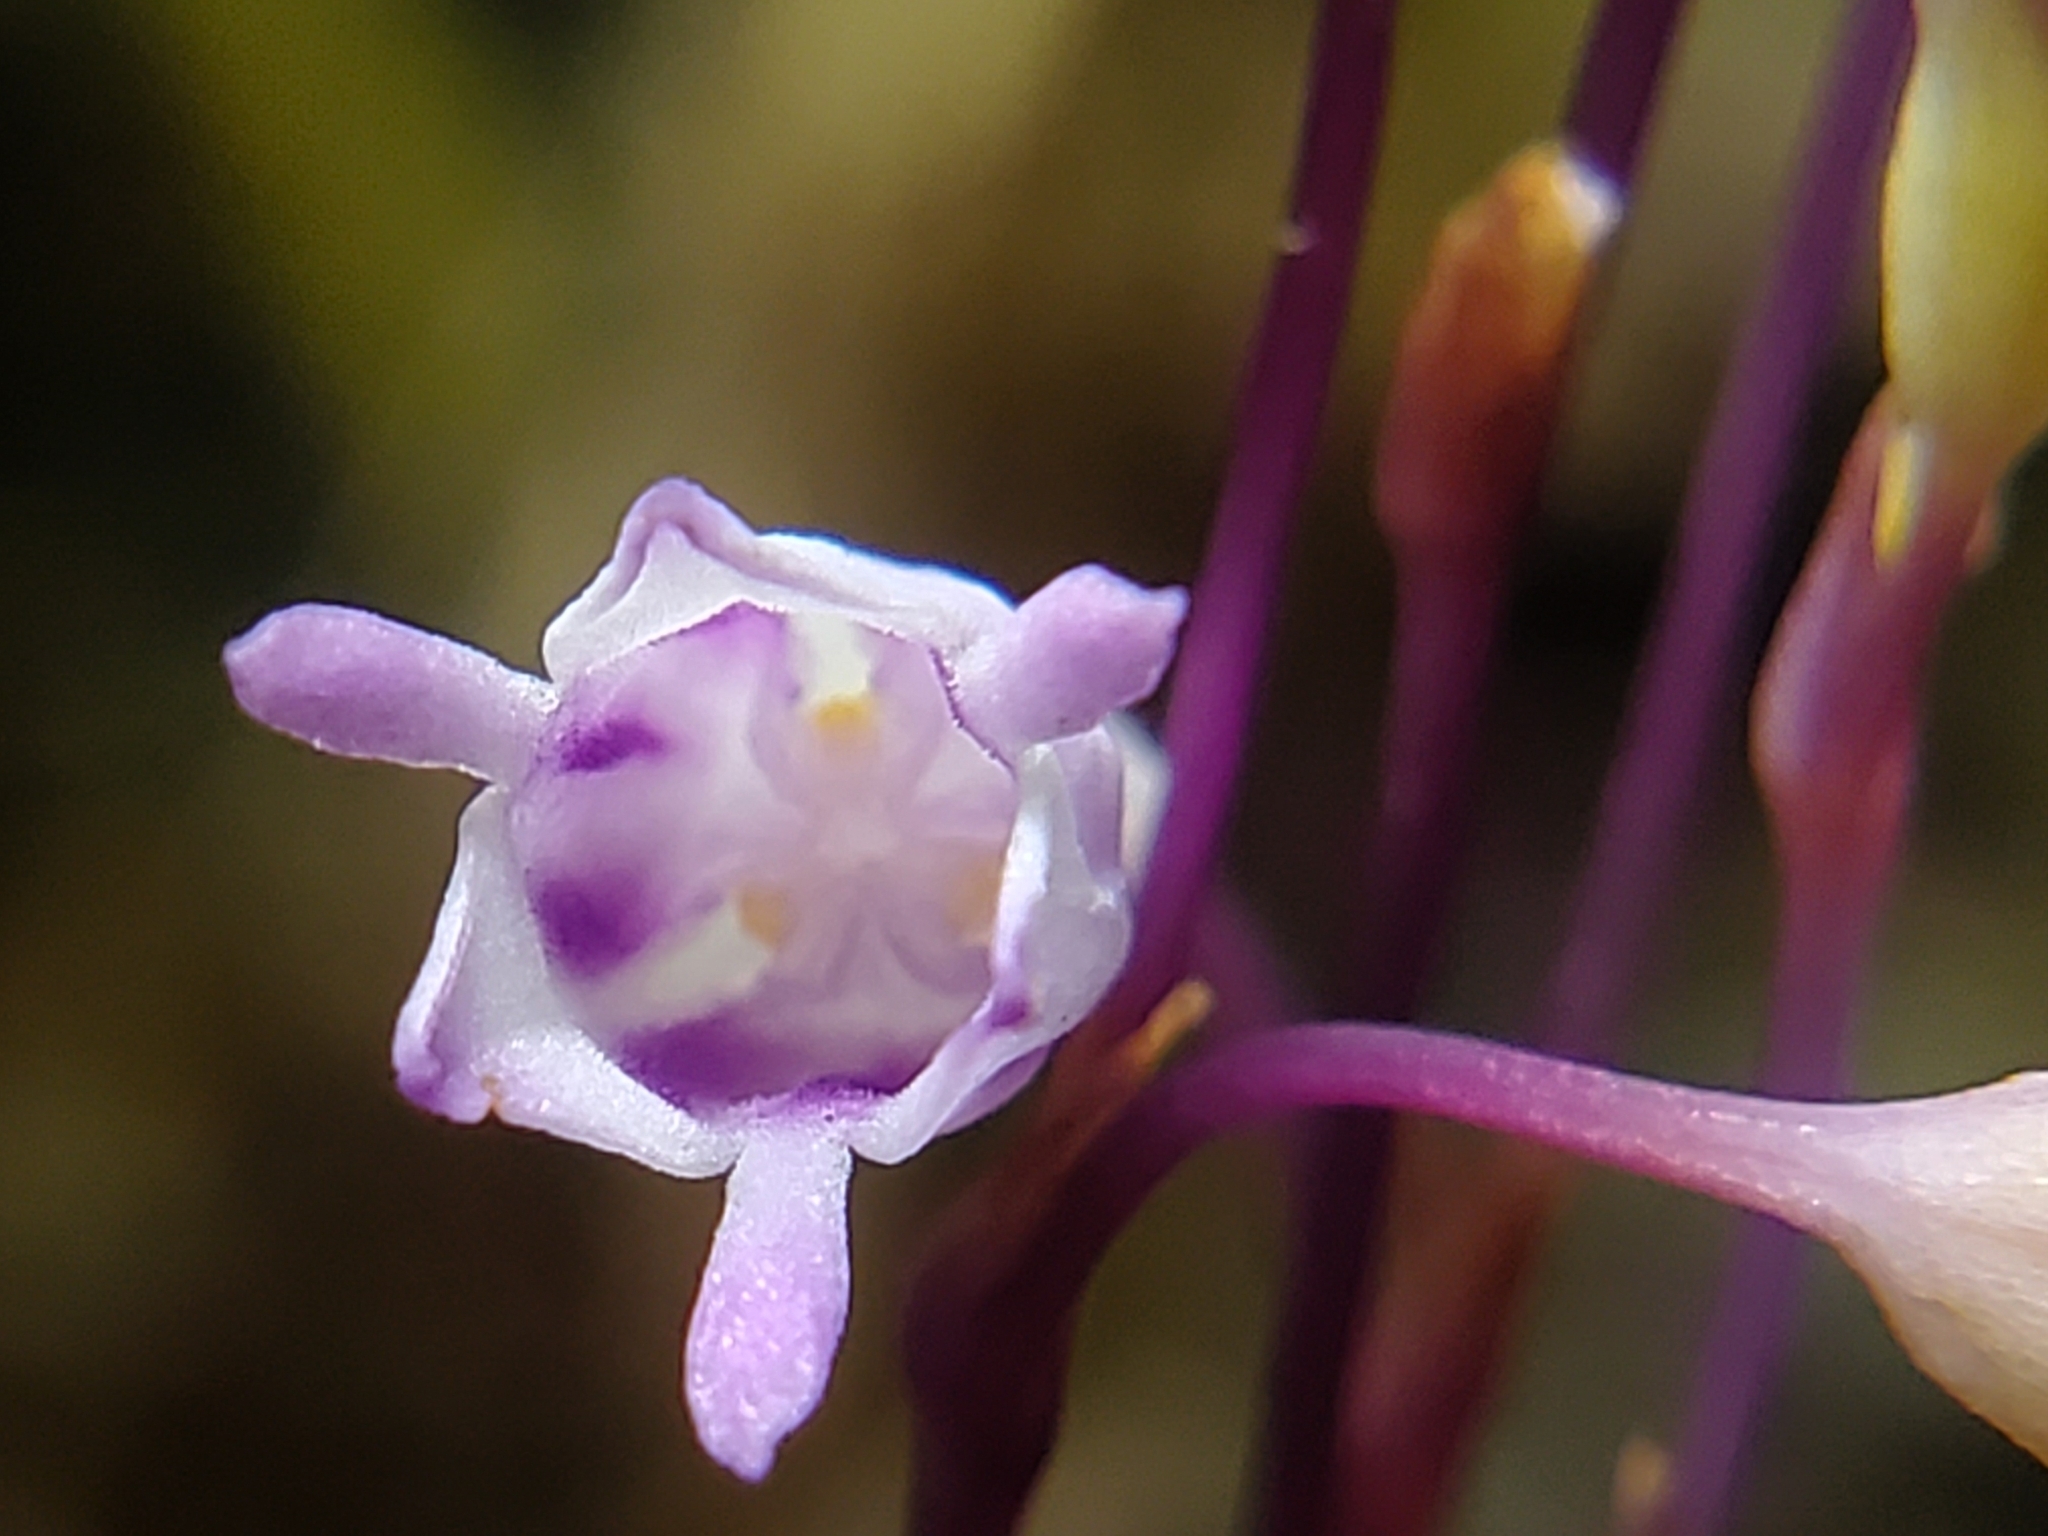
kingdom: Plantae
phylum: Tracheophyta
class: Liliopsida
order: Dioscoreales
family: Burmanniaceae
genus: Apteria
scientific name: Apteria aphylla
